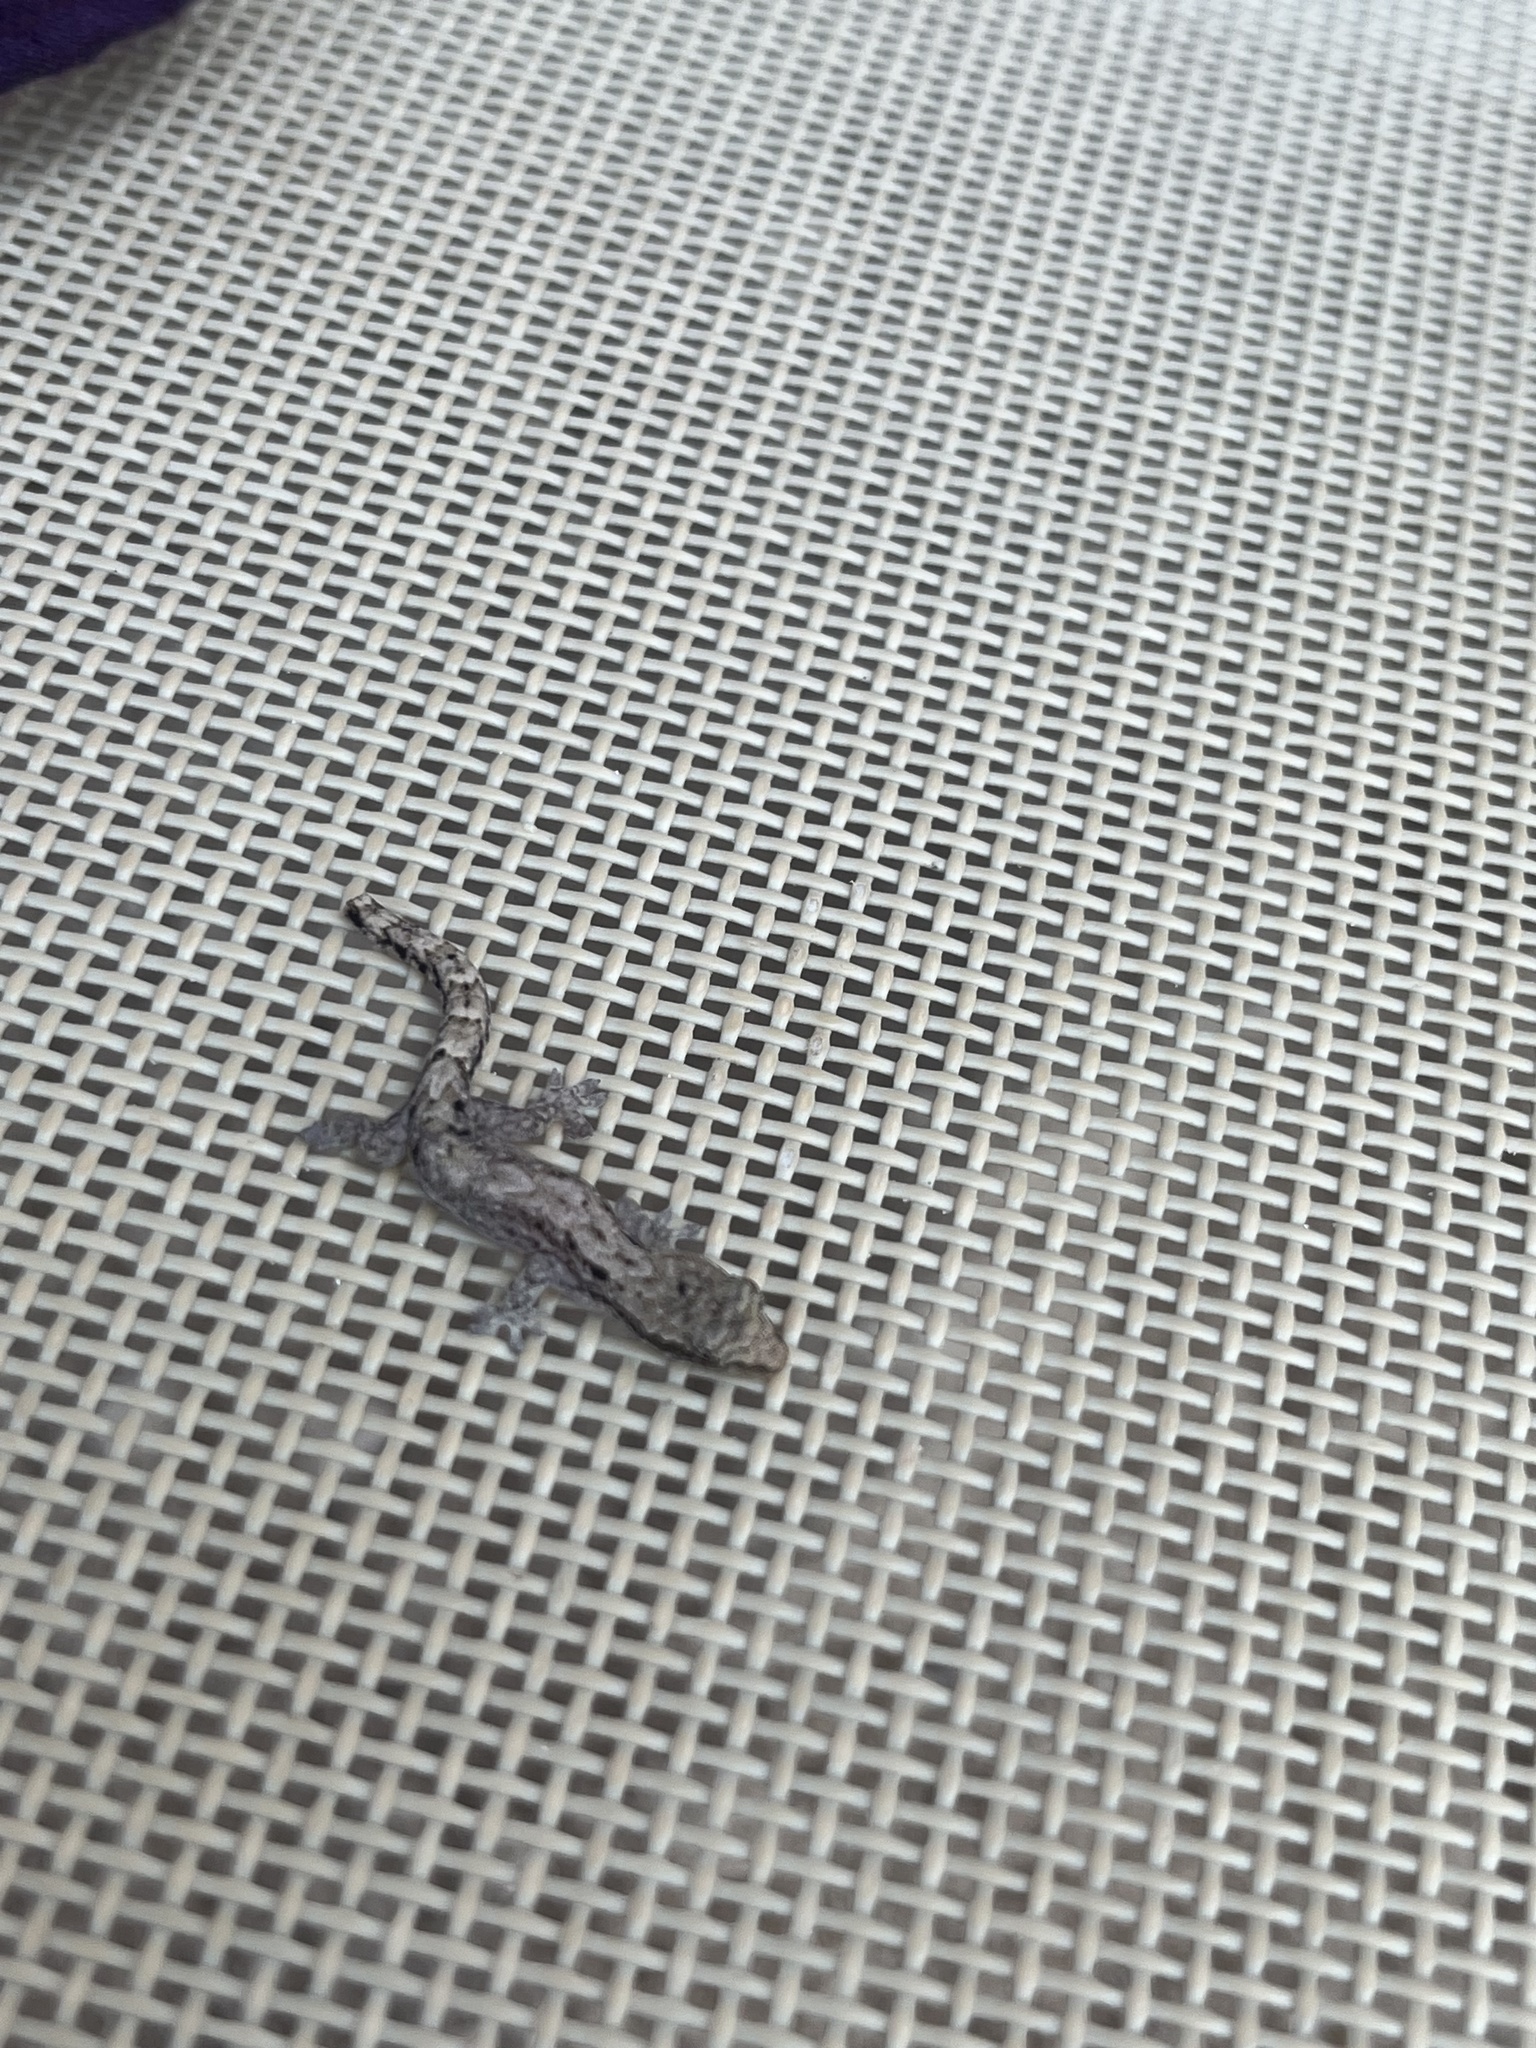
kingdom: Animalia
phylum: Chordata
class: Squamata
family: Gekkonidae
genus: Lepidodactylus
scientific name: Lepidodactylus lugubris
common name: Mourning gecko
